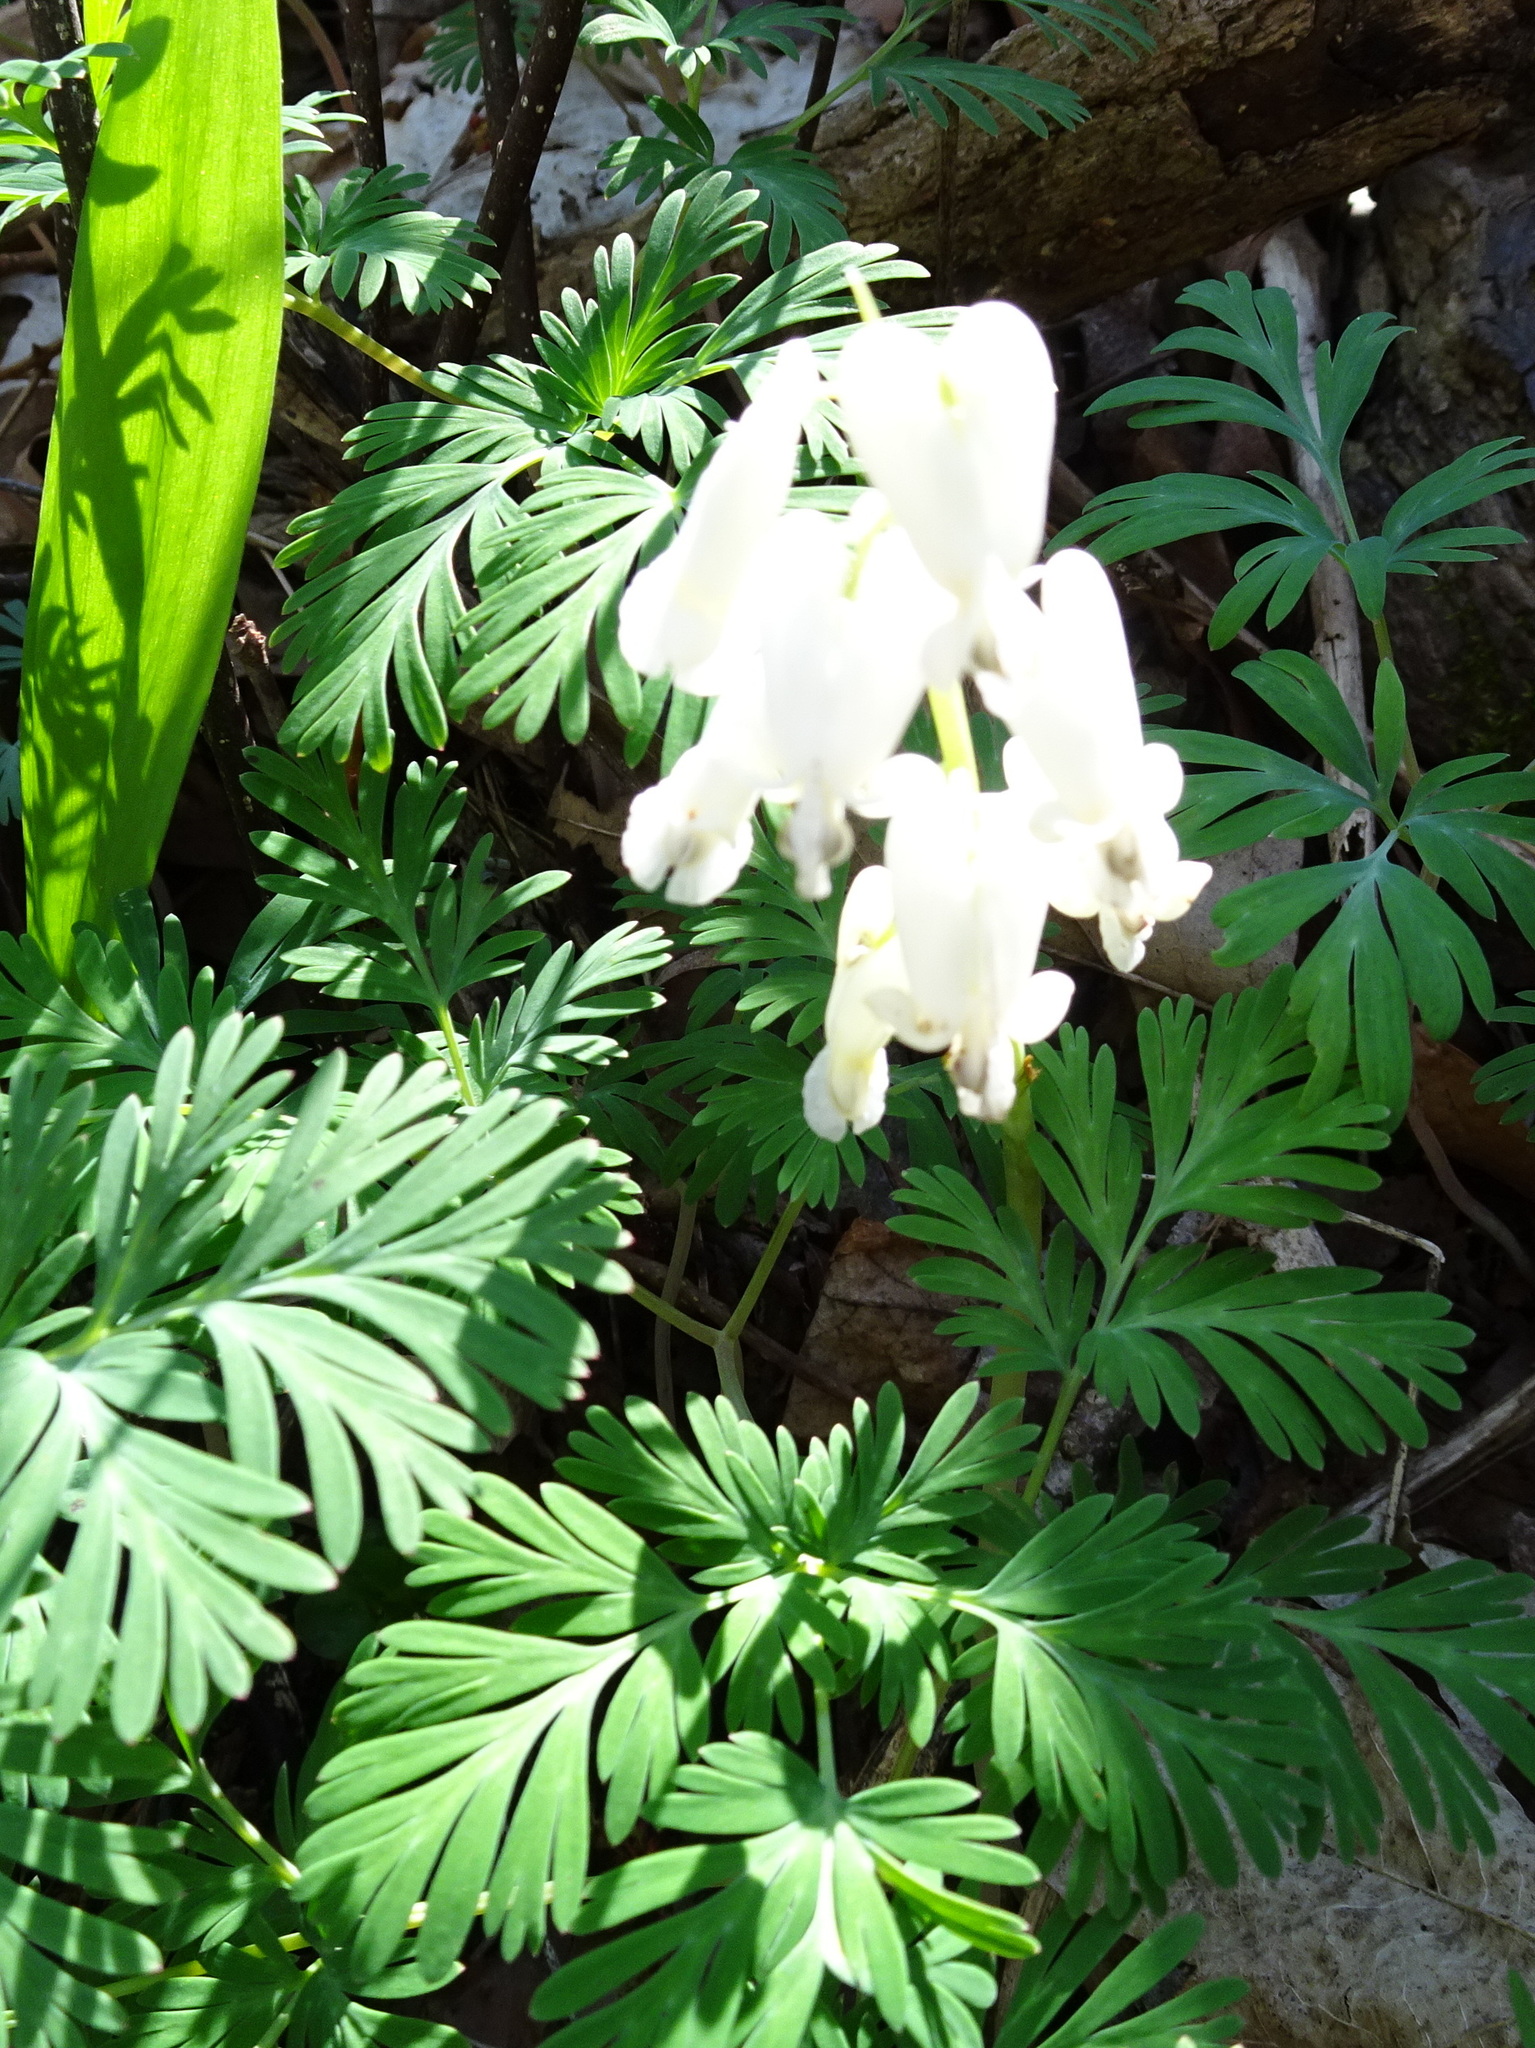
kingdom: Plantae
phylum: Tracheophyta
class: Magnoliopsida
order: Ranunculales
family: Papaveraceae
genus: Dicentra
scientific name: Dicentra canadensis
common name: Squirrel-corn
